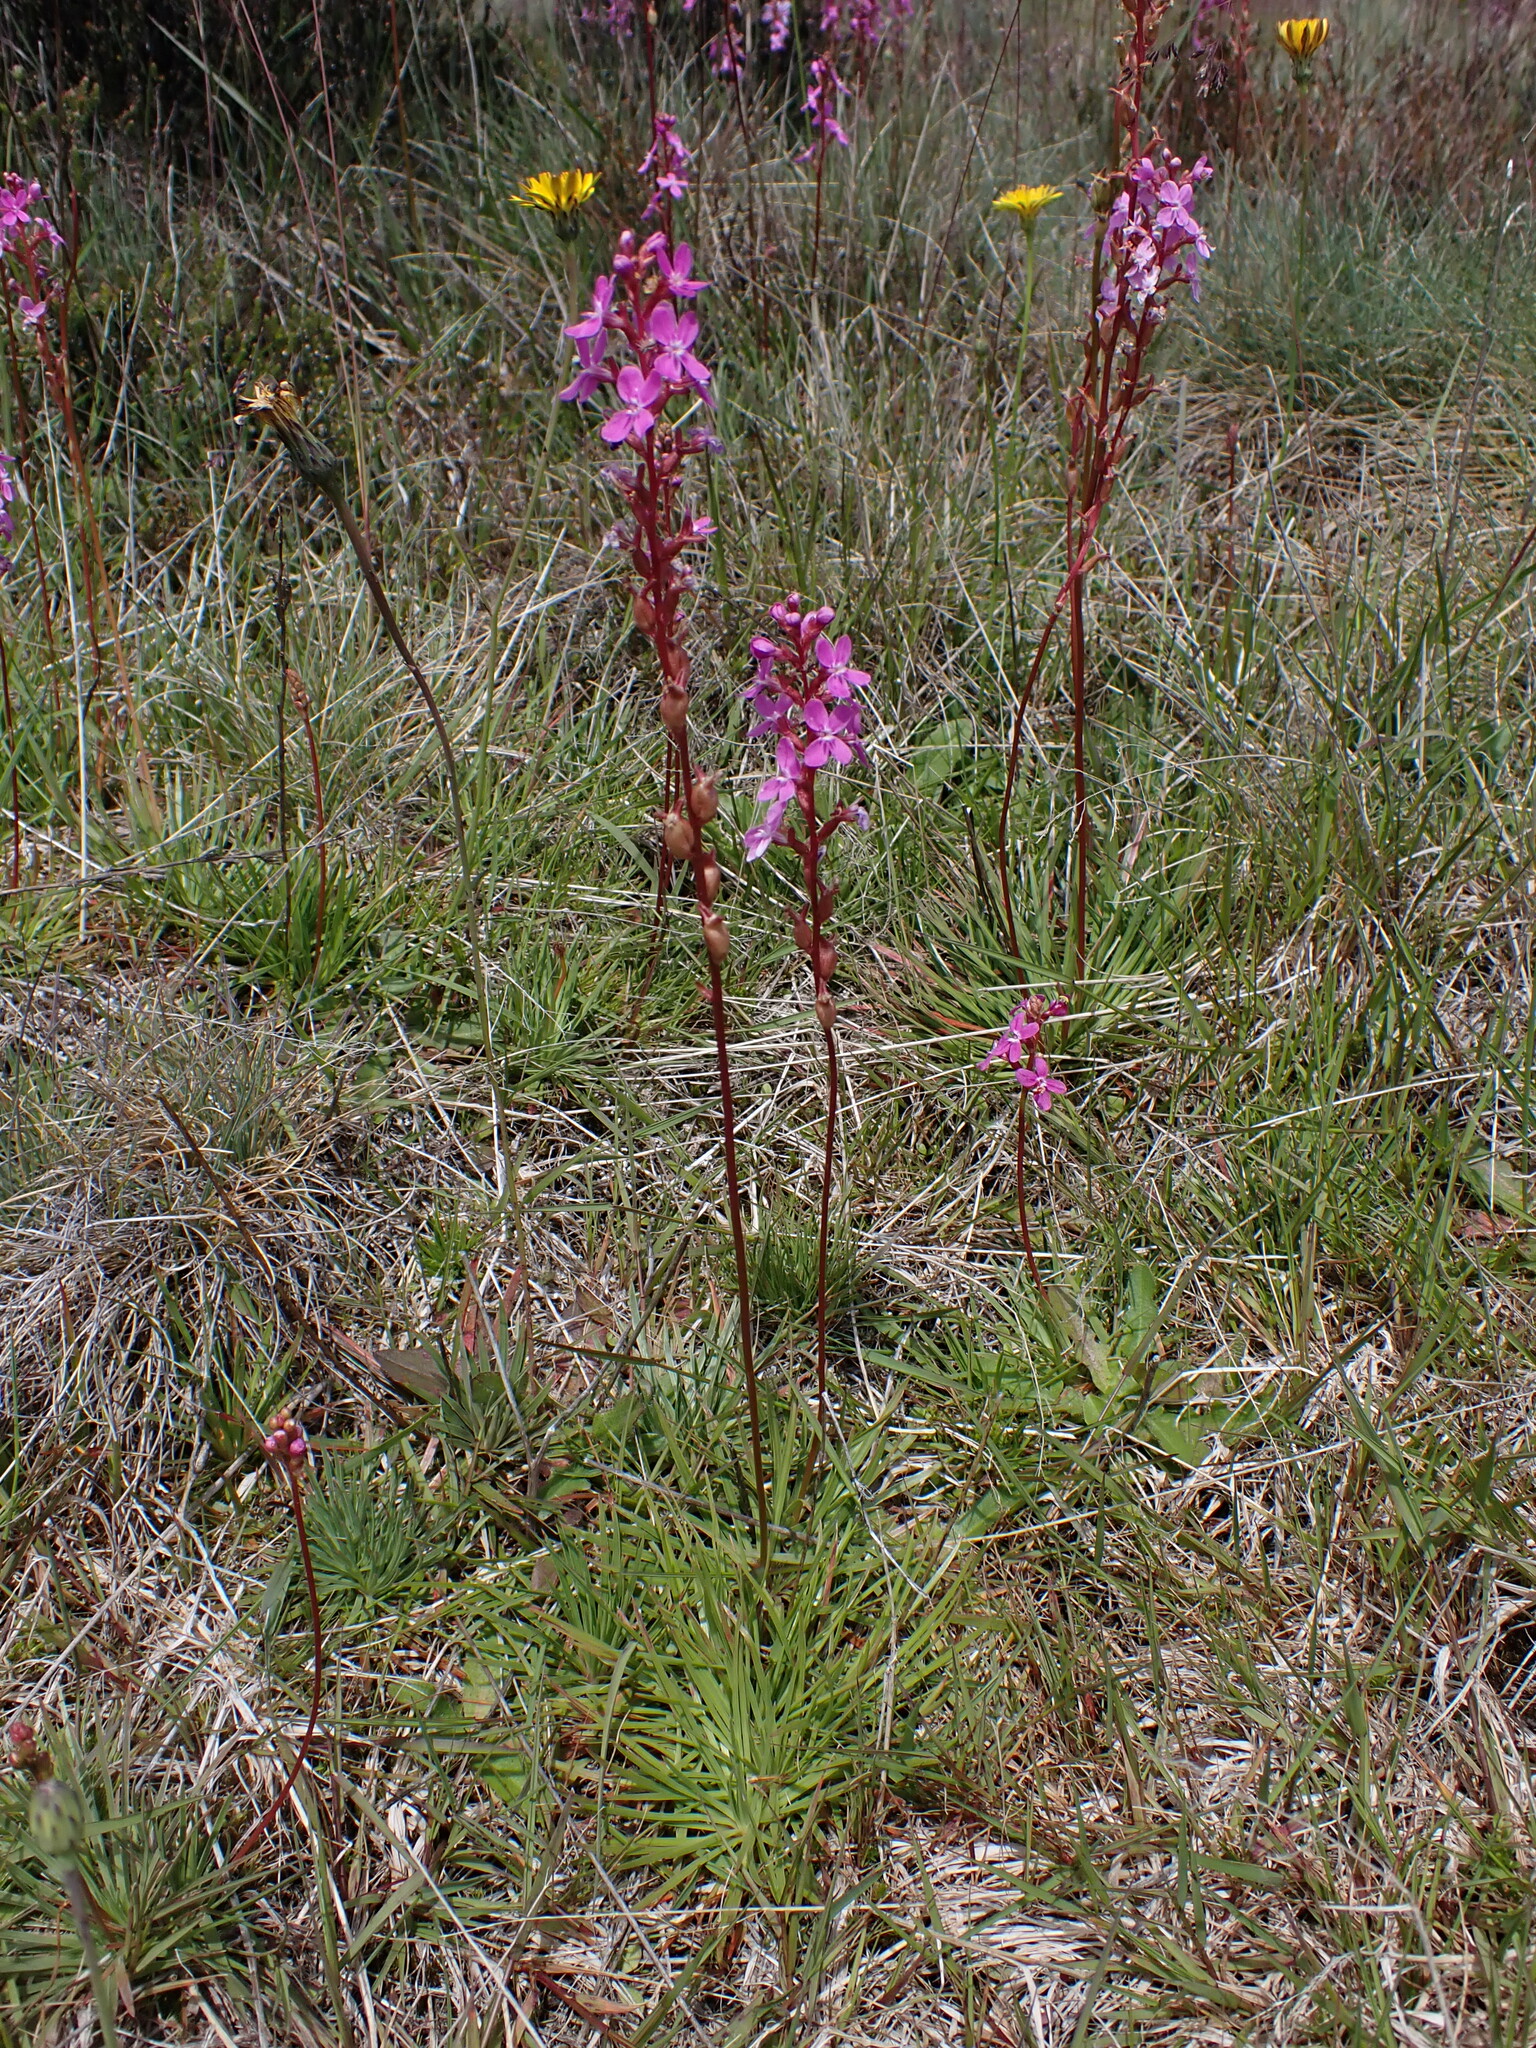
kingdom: Plantae
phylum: Tracheophyta
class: Magnoliopsida
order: Asterales
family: Stylidiaceae
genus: Stylidium
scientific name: Stylidium montanum
